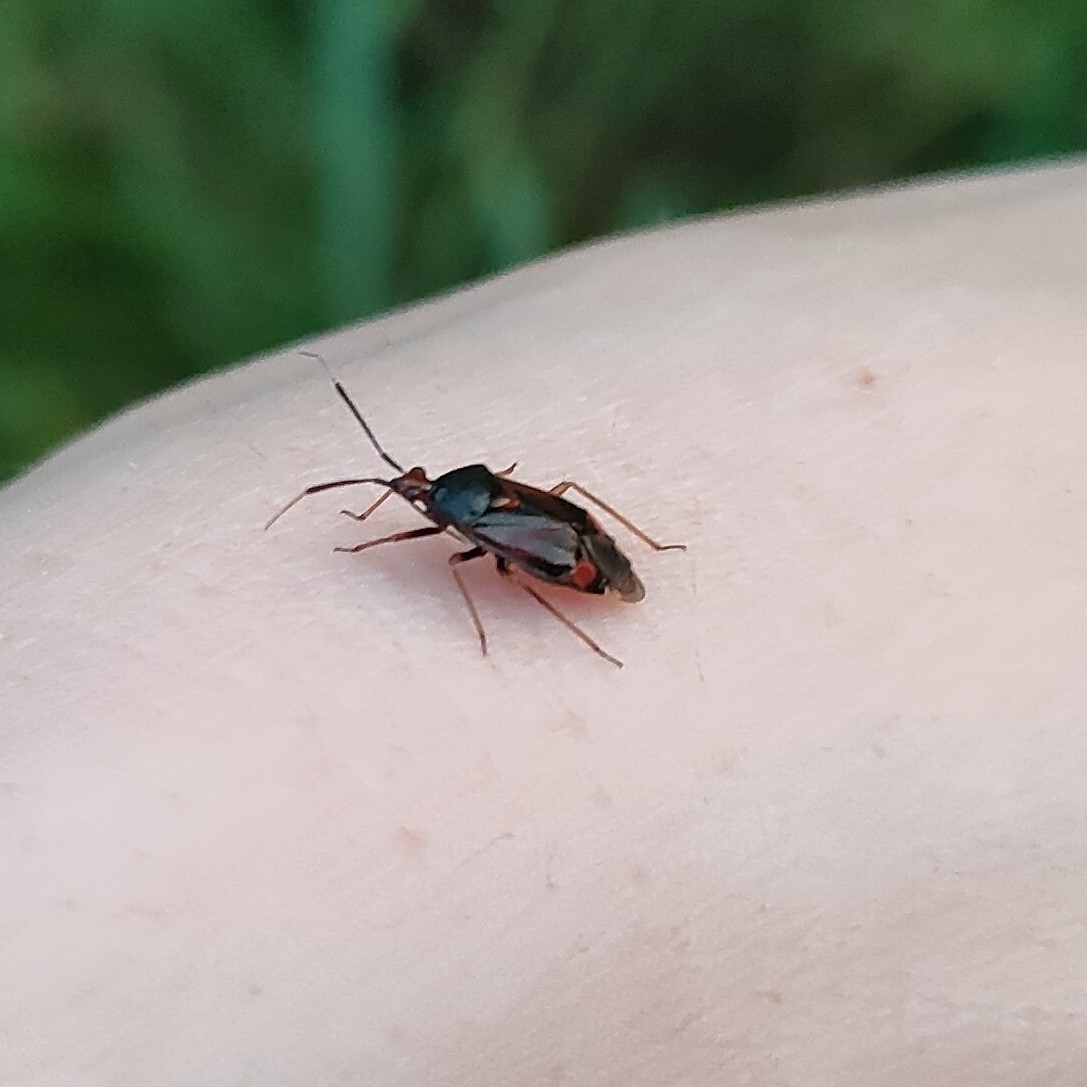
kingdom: Animalia
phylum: Arthropoda
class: Insecta
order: Hemiptera
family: Miridae
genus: Deraeocoris
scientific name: Deraeocoris ruber
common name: Plant bug
